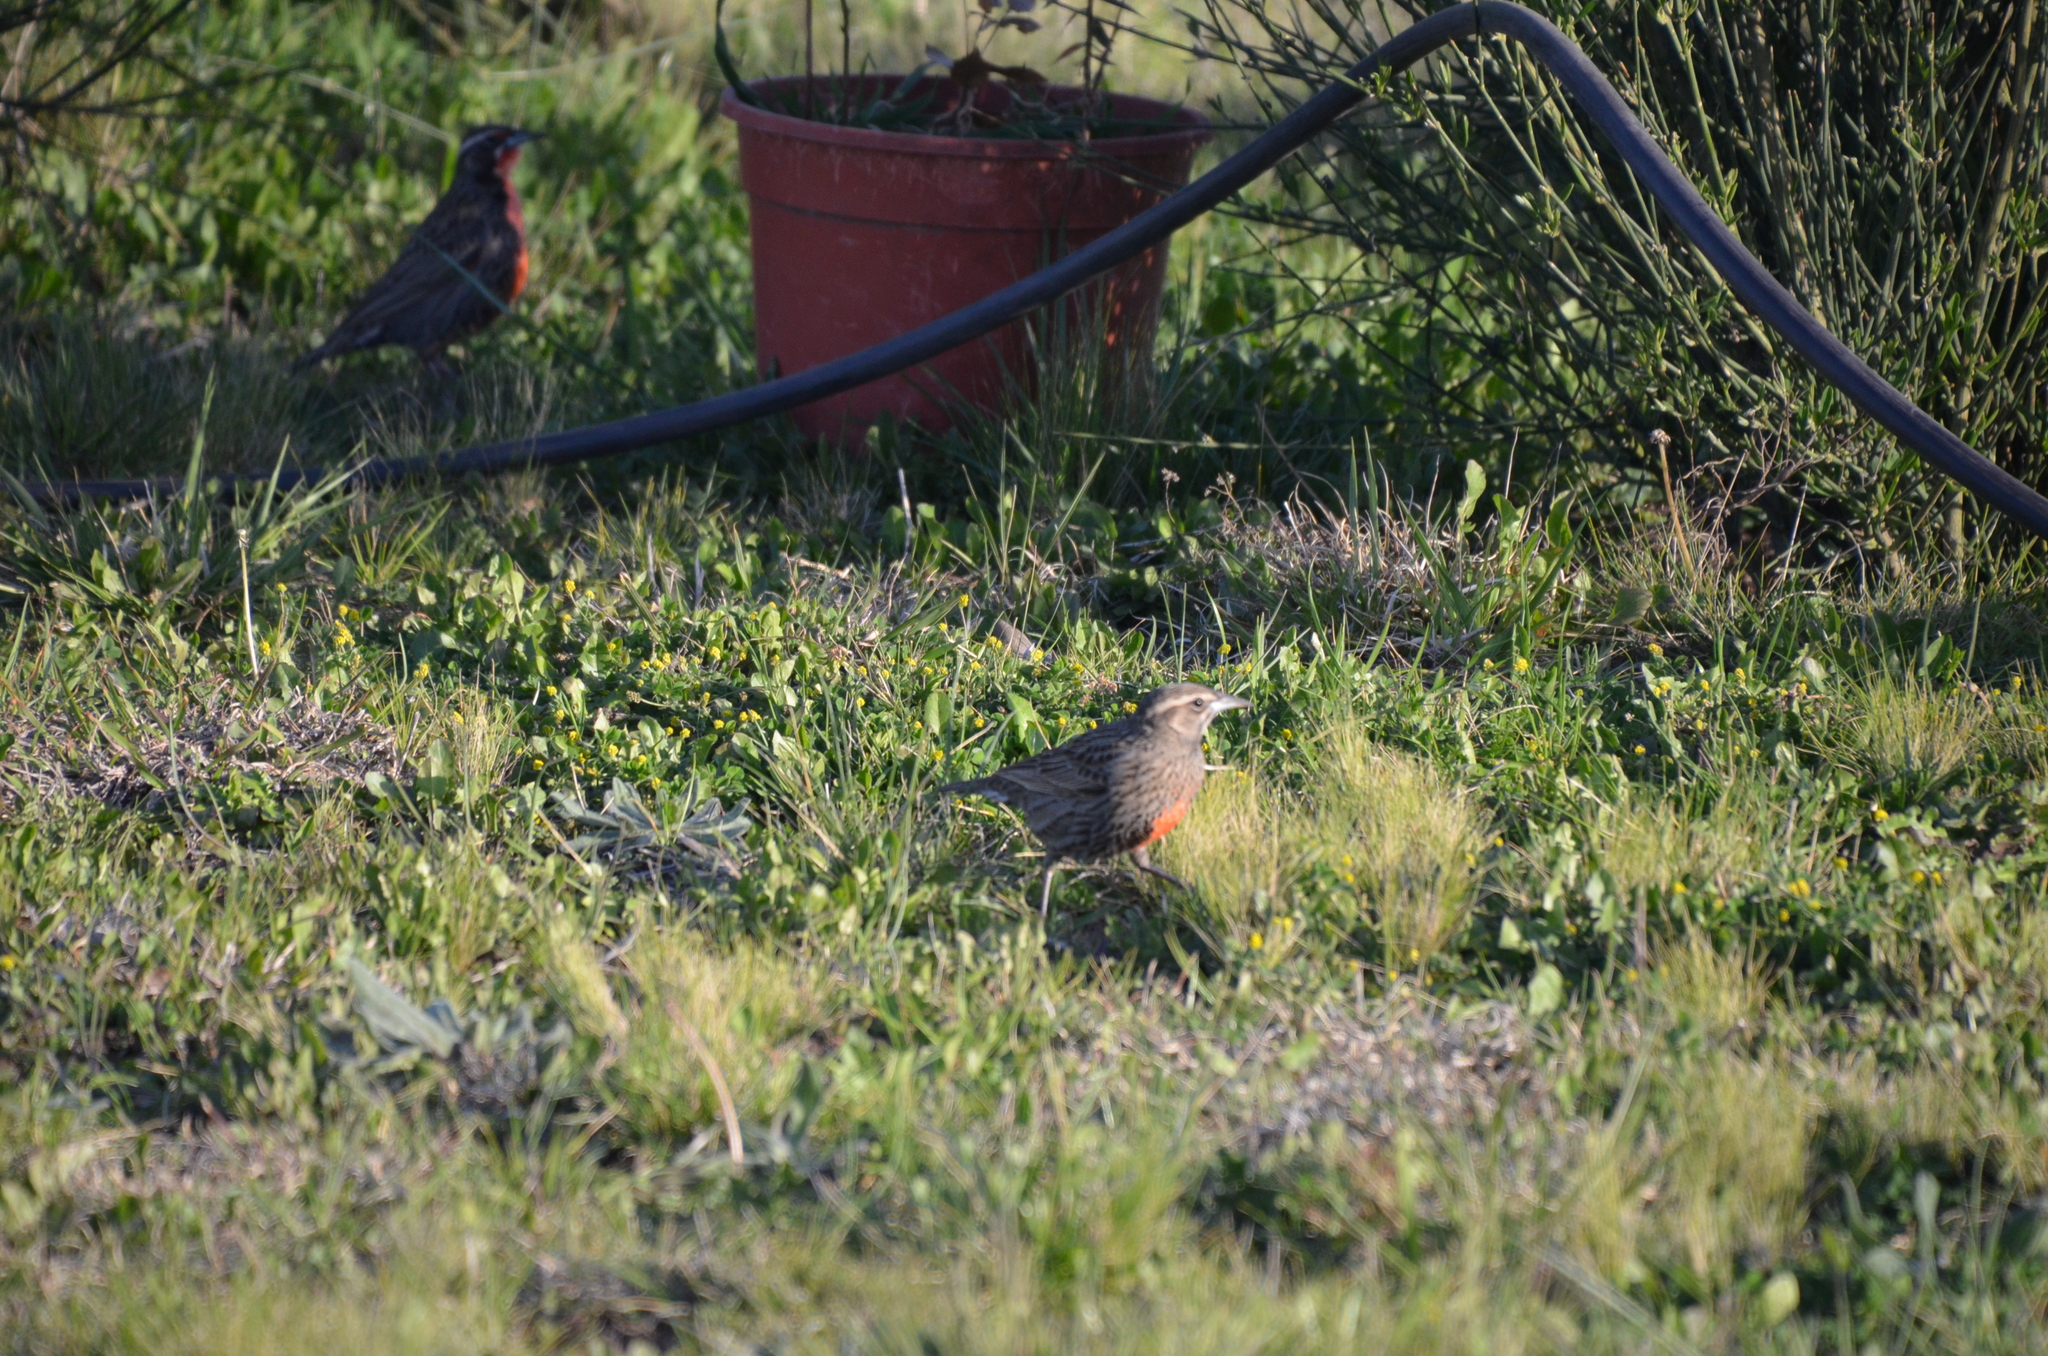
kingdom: Animalia
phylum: Chordata
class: Aves
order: Passeriformes
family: Icteridae
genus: Sturnella
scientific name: Sturnella loyca
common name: Long-tailed meadowlark
